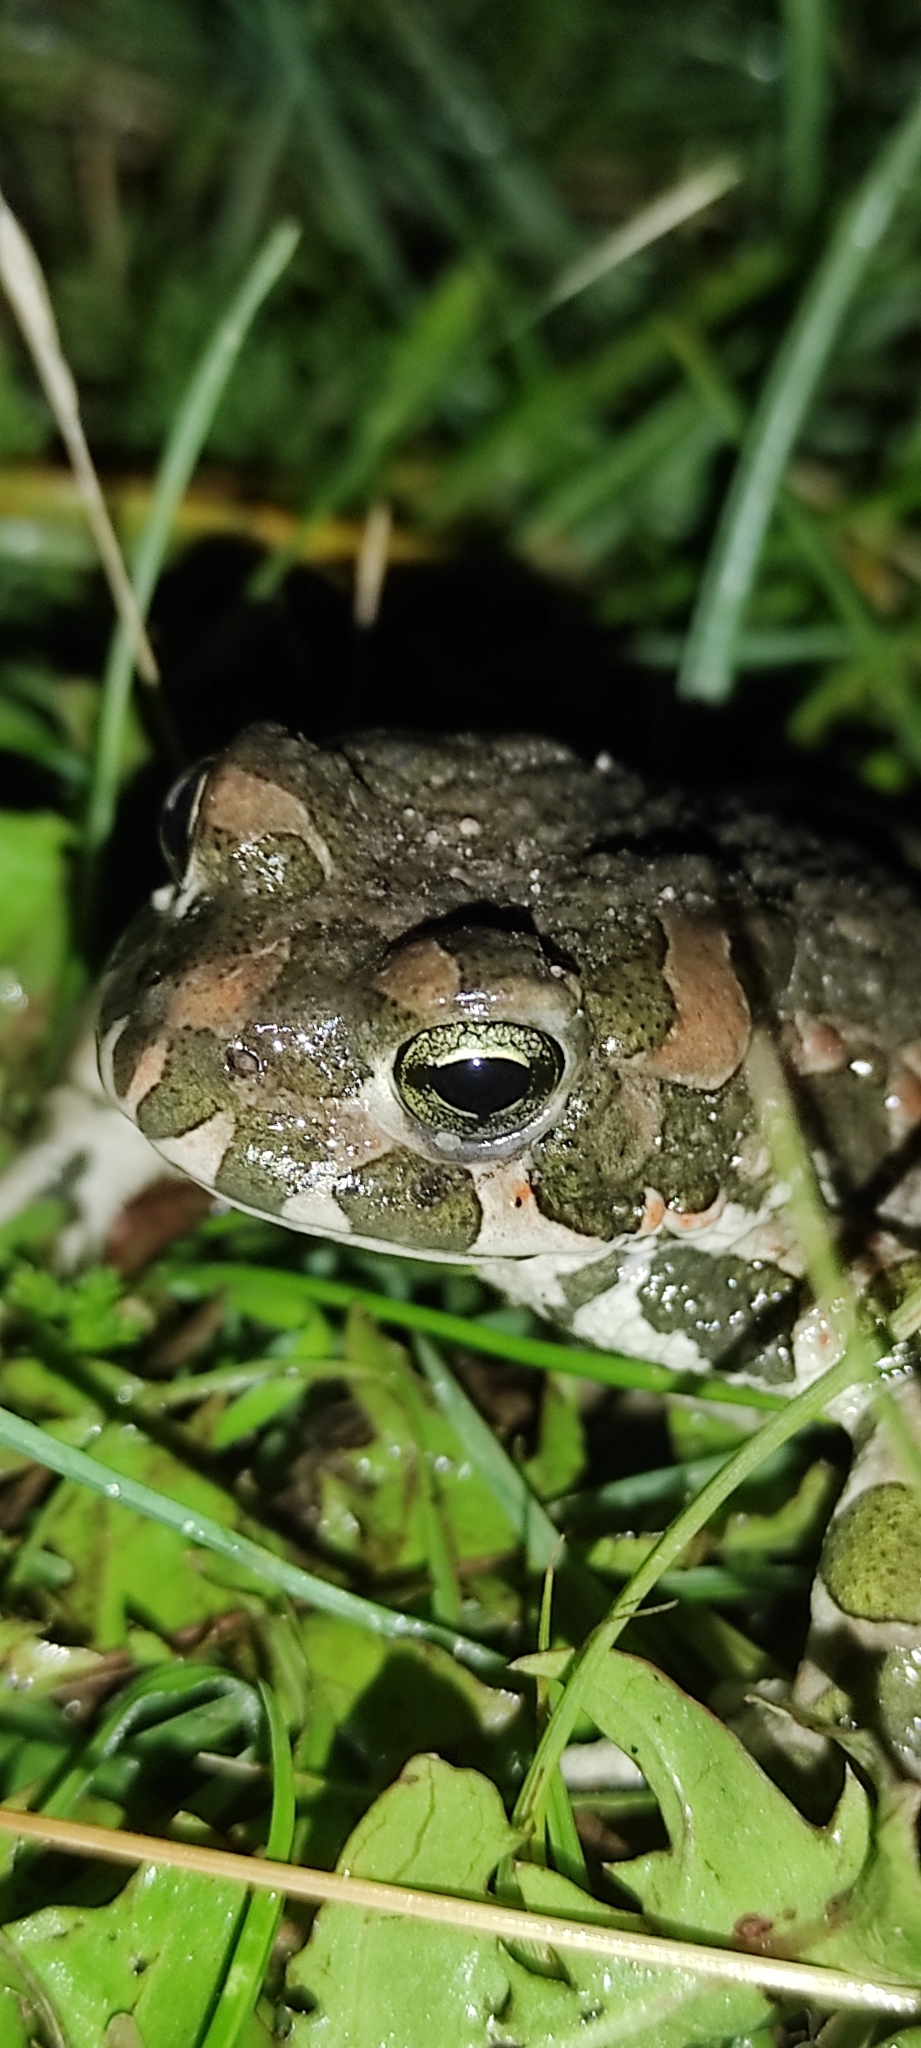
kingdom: Animalia
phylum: Chordata
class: Amphibia
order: Anura
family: Bufonidae
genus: Bufotes
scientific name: Bufotes viridis
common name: European green toad
